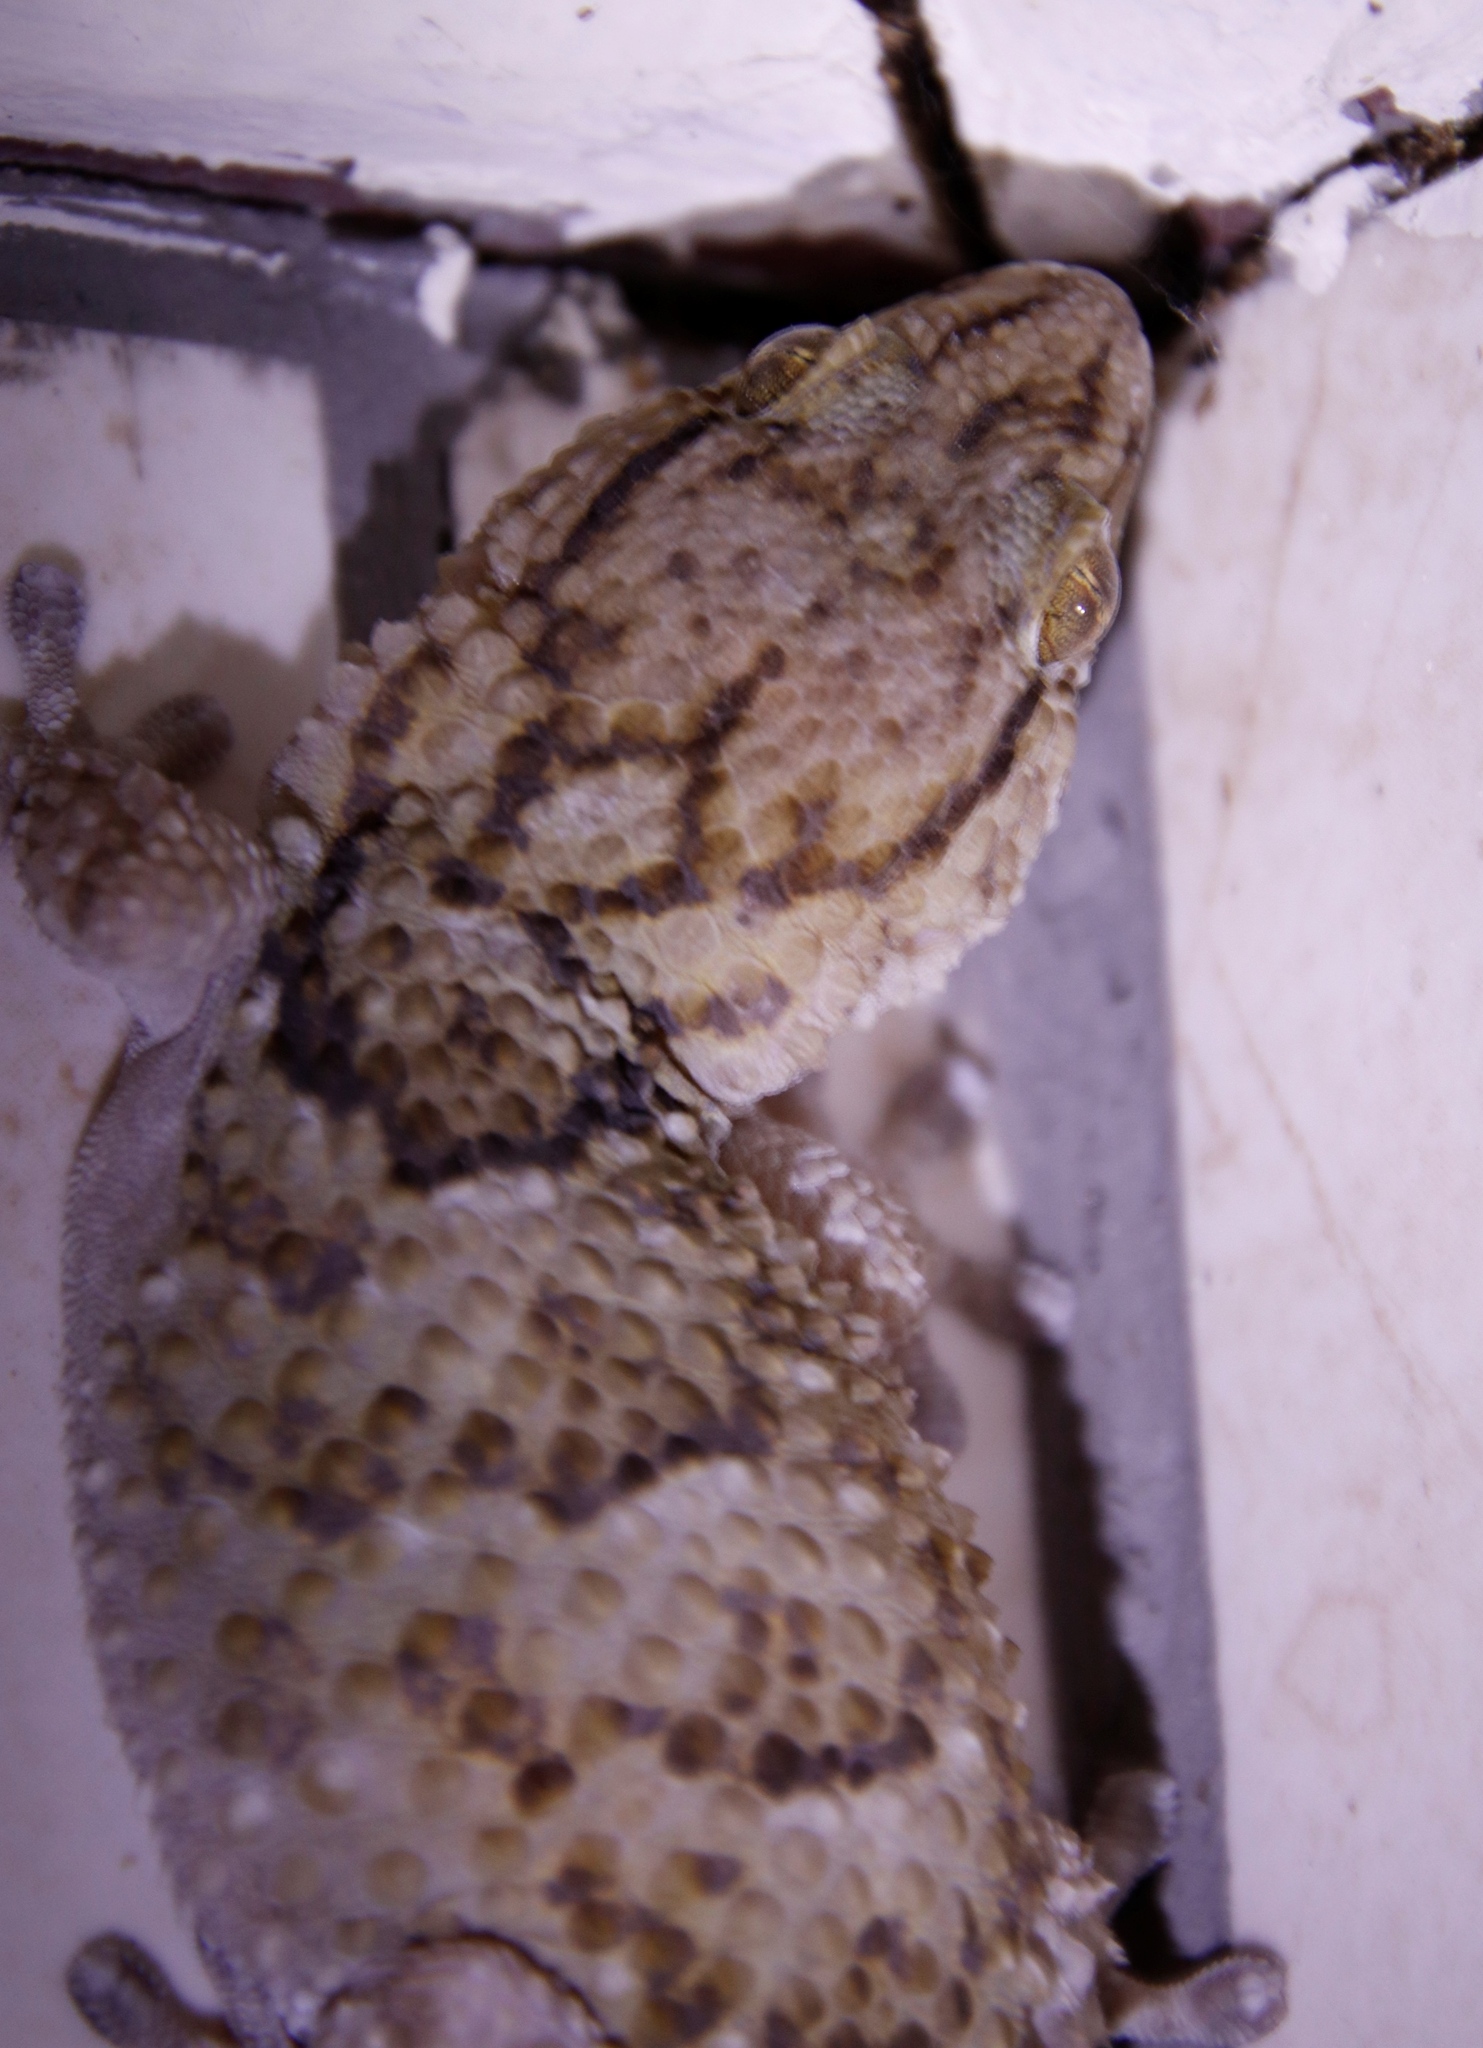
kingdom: Animalia
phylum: Chordata
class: Squamata
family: Gekkonidae
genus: Chondrodactylus
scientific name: Chondrodactylus laevigatus
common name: Fischer's thick-toed gecko
